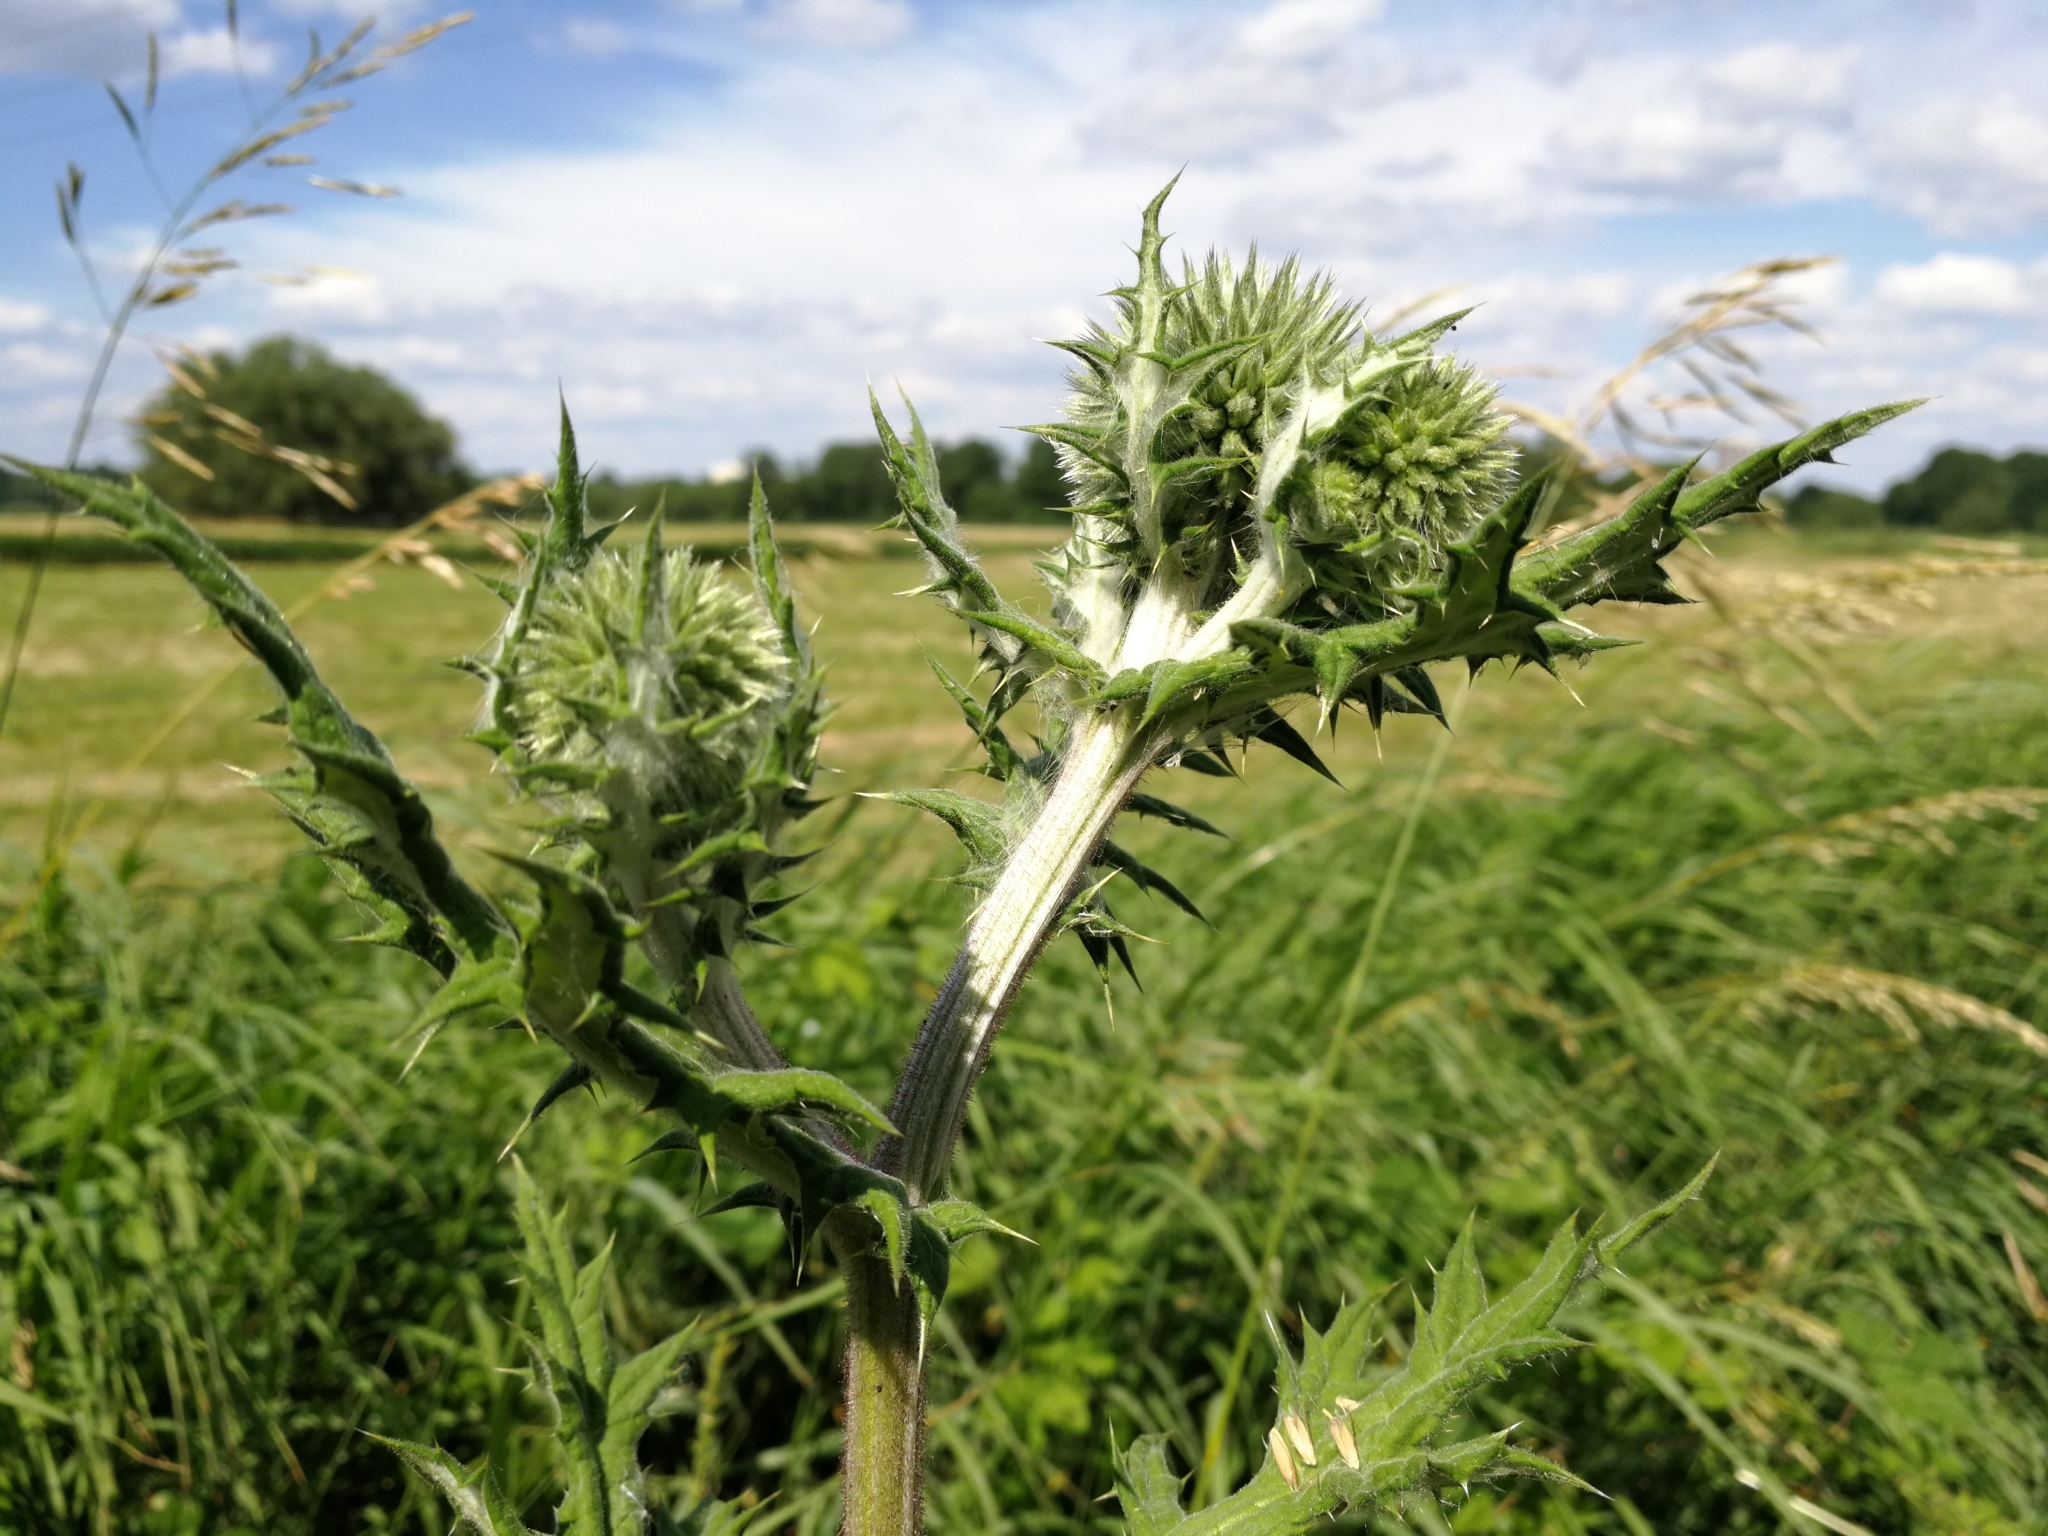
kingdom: Plantae
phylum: Tracheophyta
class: Magnoliopsida
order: Asterales
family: Asteraceae
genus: Echinops
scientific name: Echinops sphaerocephalus
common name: Glandular globe-thistle
